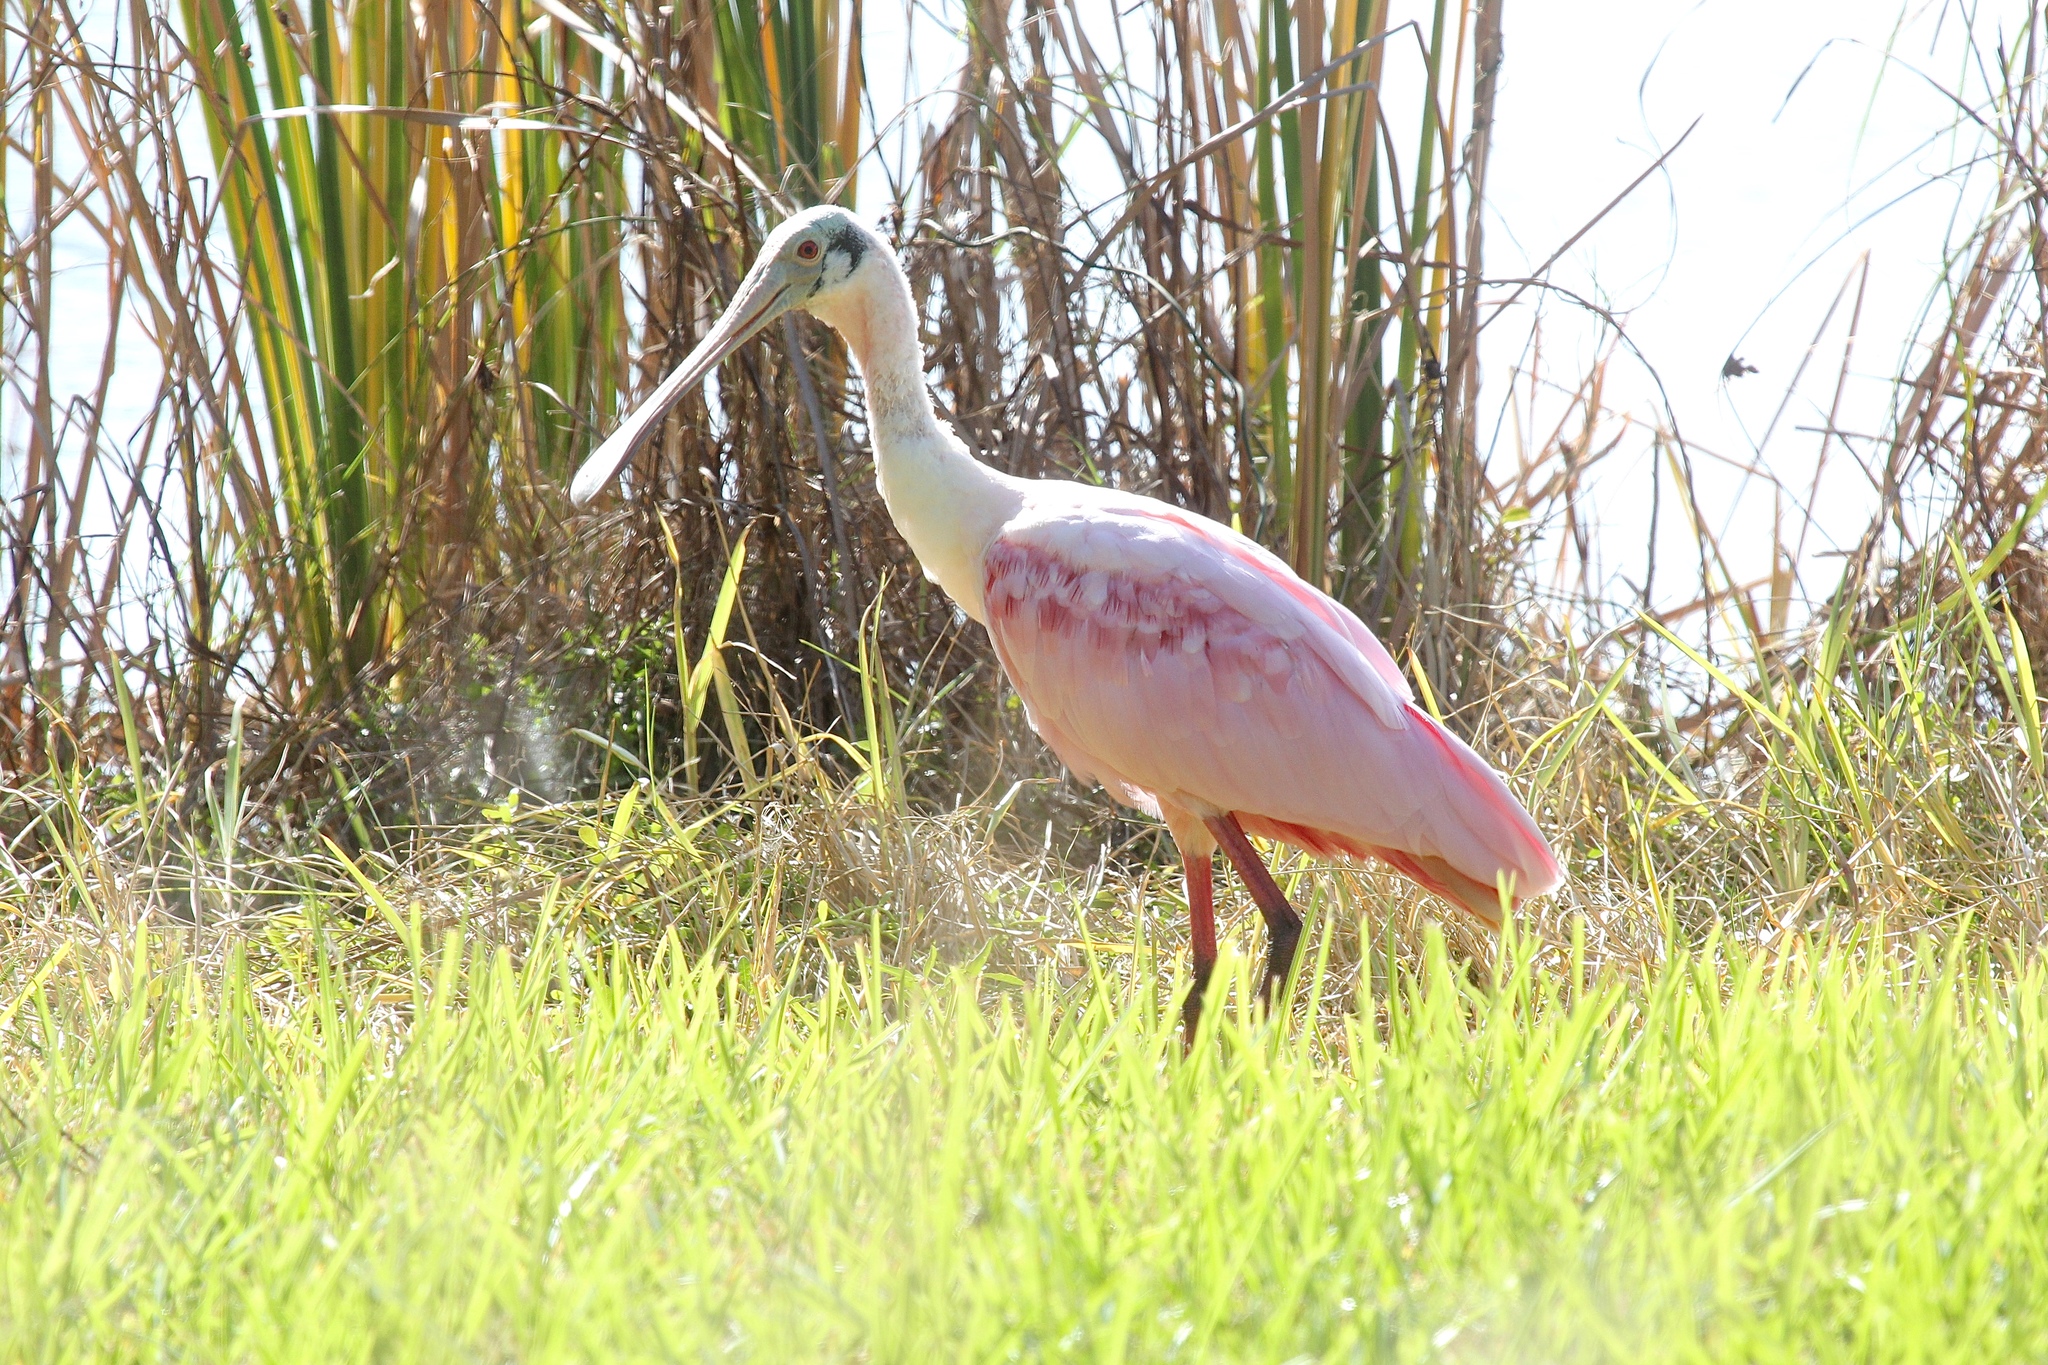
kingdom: Animalia
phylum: Chordata
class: Aves
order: Pelecaniformes
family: Threskiornithidae
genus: Platalea
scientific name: Platalea ajaja
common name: Roseate spoonbill
